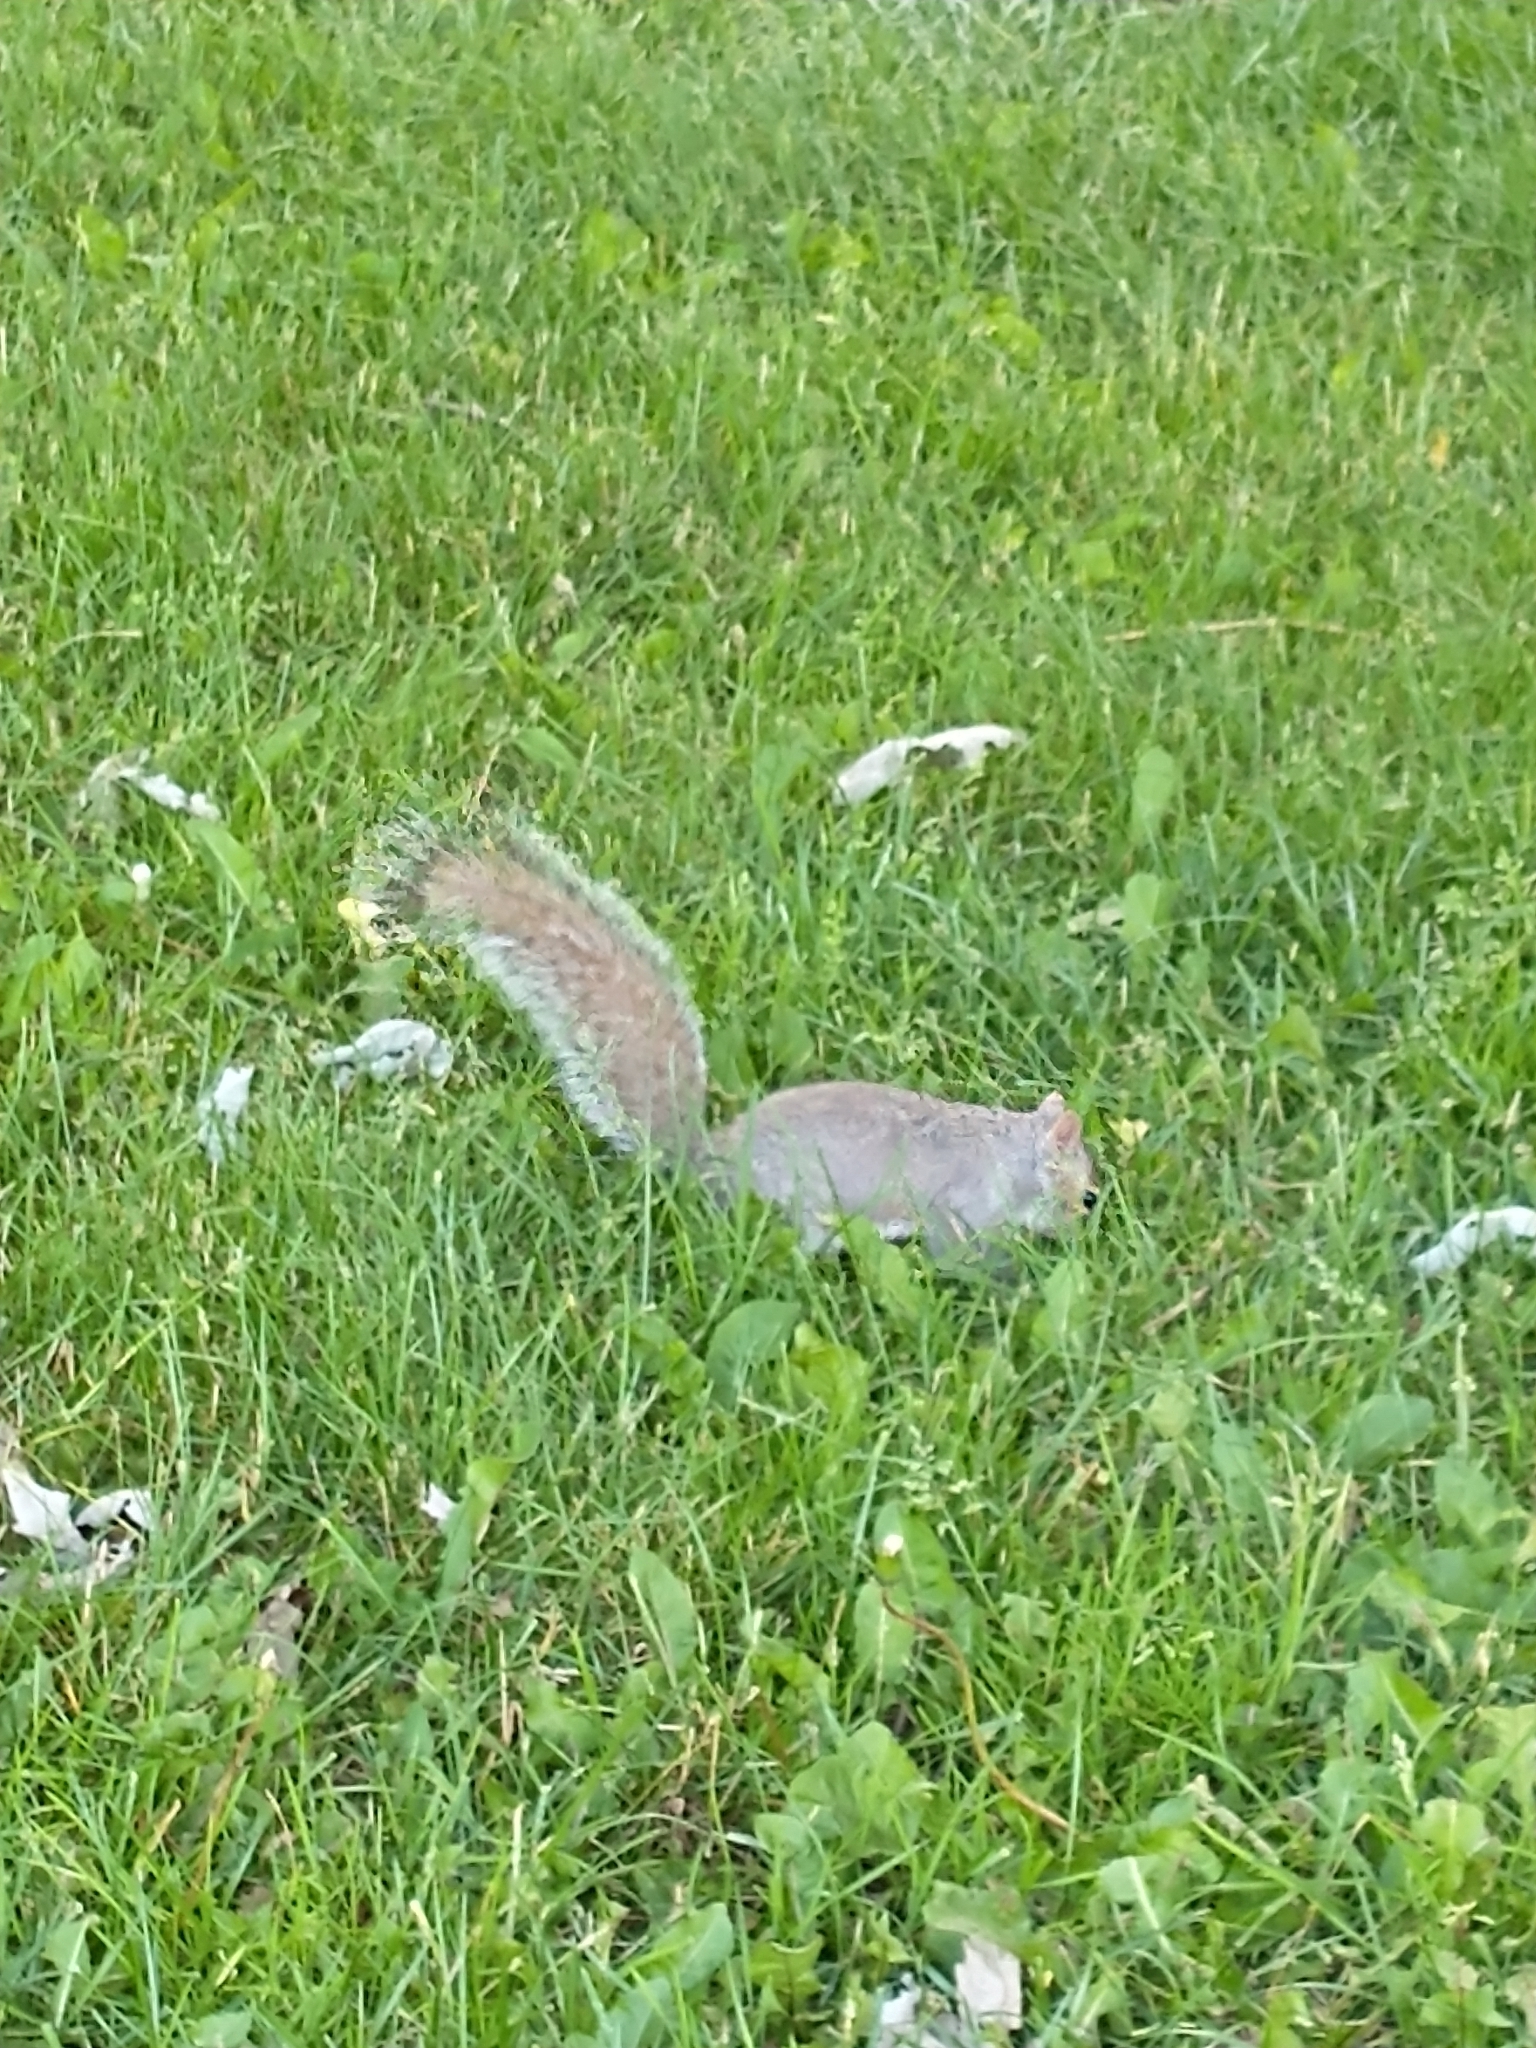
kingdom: Animalia
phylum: Chordata
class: Mammalia
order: Rodentia
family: Sciuridae
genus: Sciurus
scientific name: Sciurus carolinensis
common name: Eastern gray squirrel
